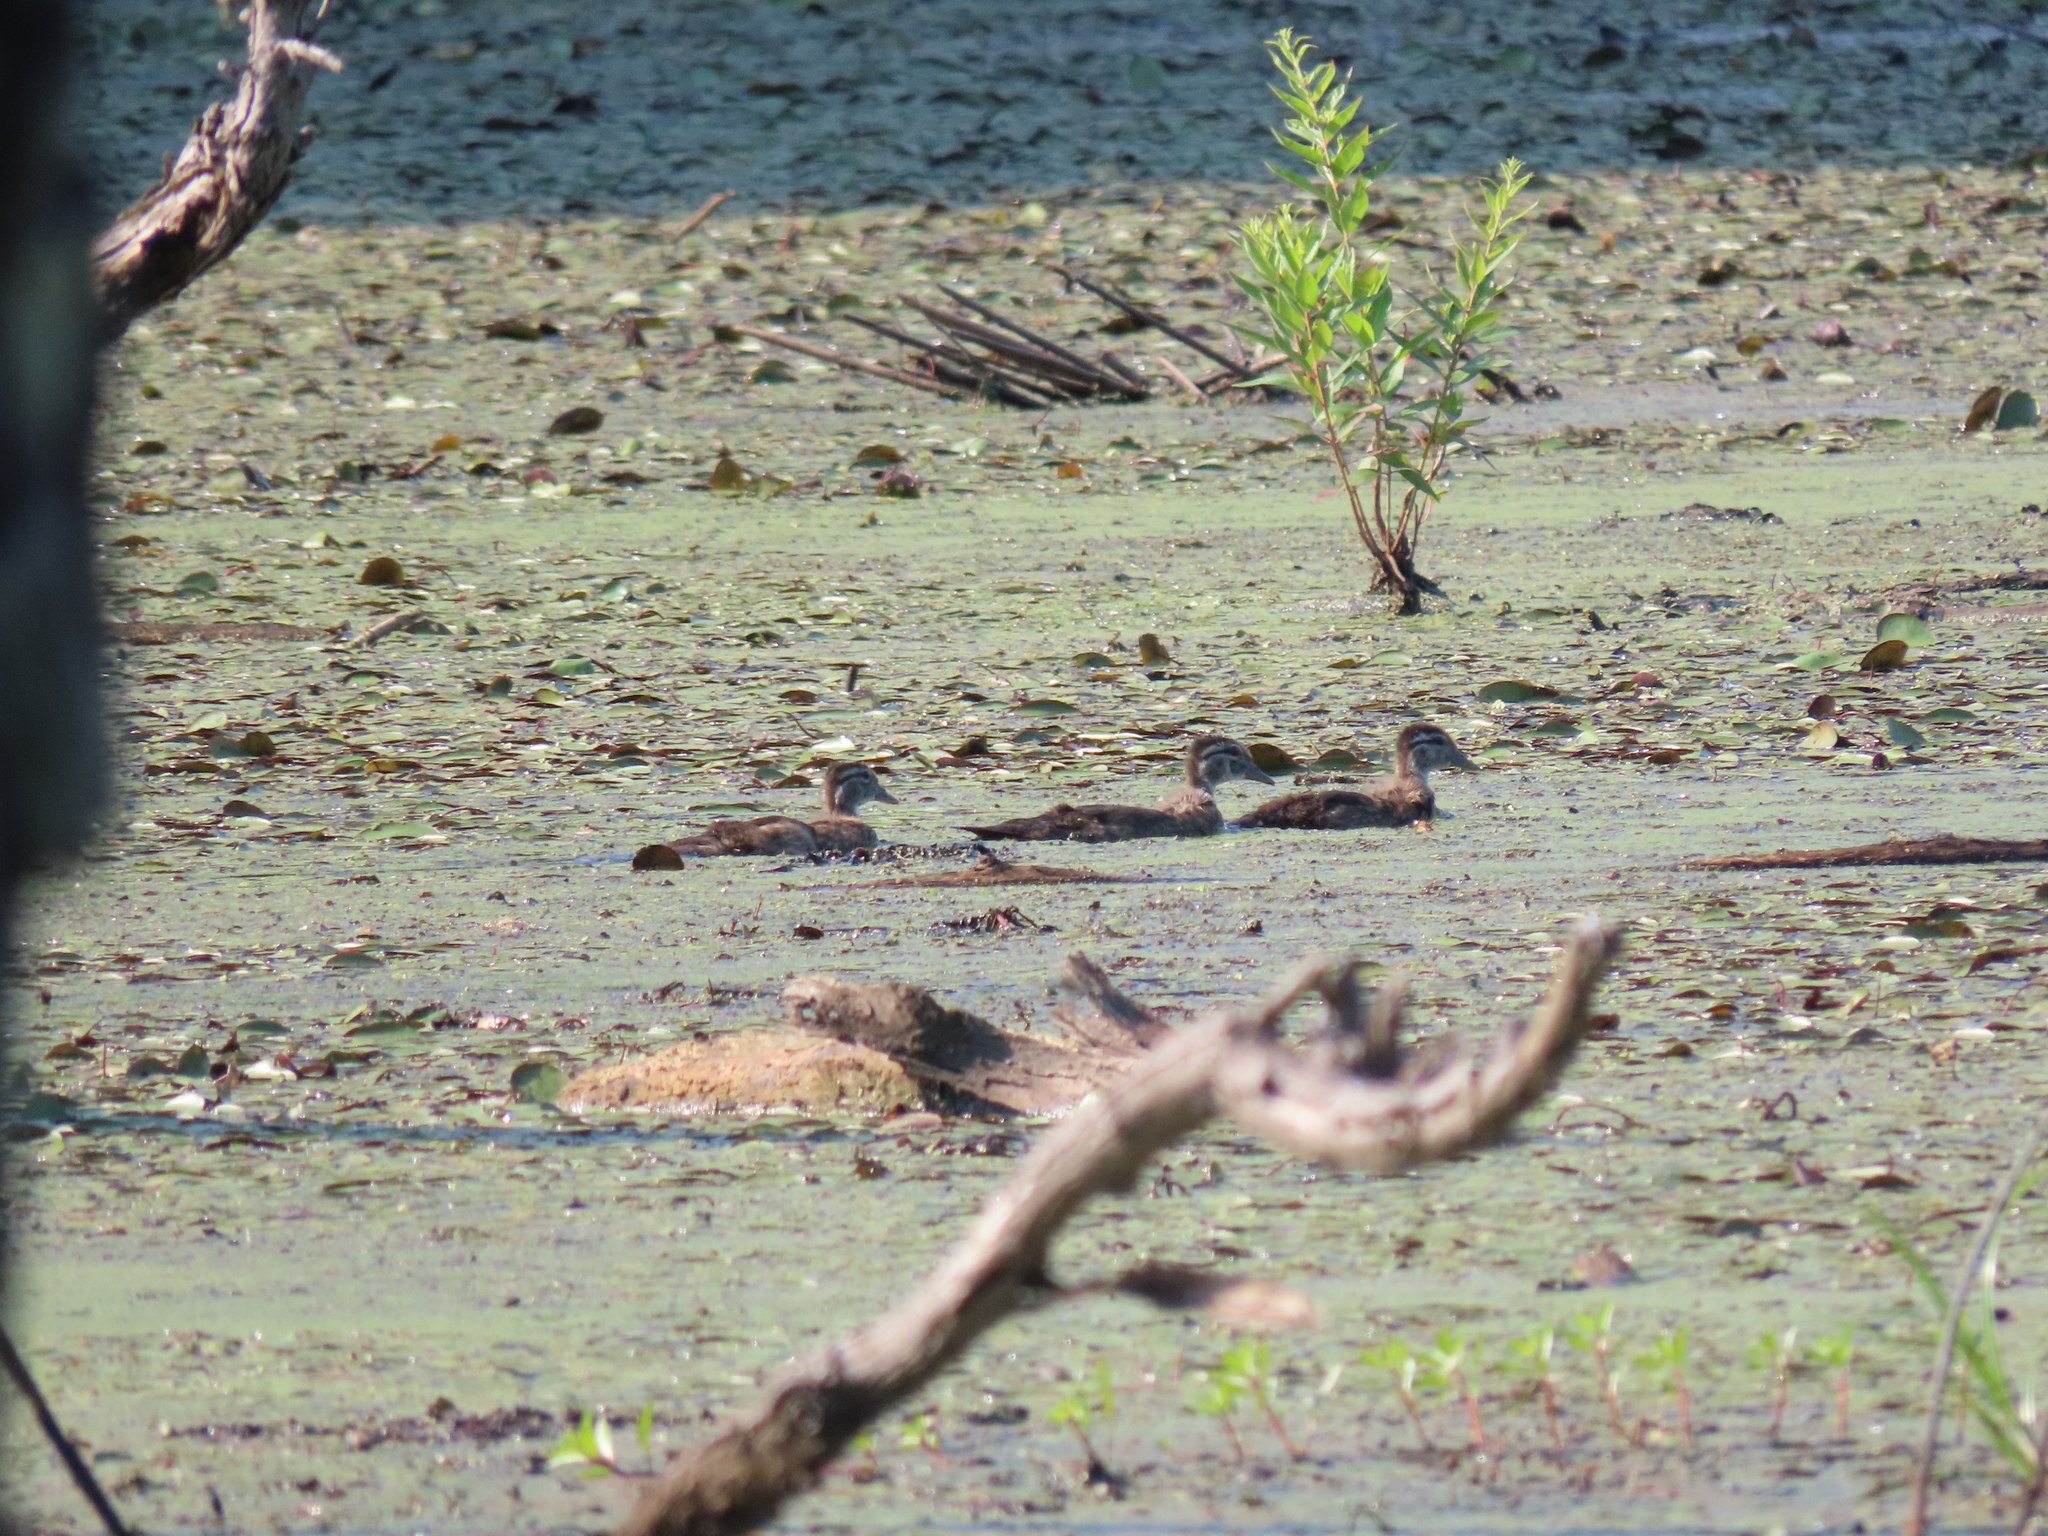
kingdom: Animalia
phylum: Chordata
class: Aves
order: Anseriformes
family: Anatidae
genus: Aix
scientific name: Aix sponsa
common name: Wood duck
